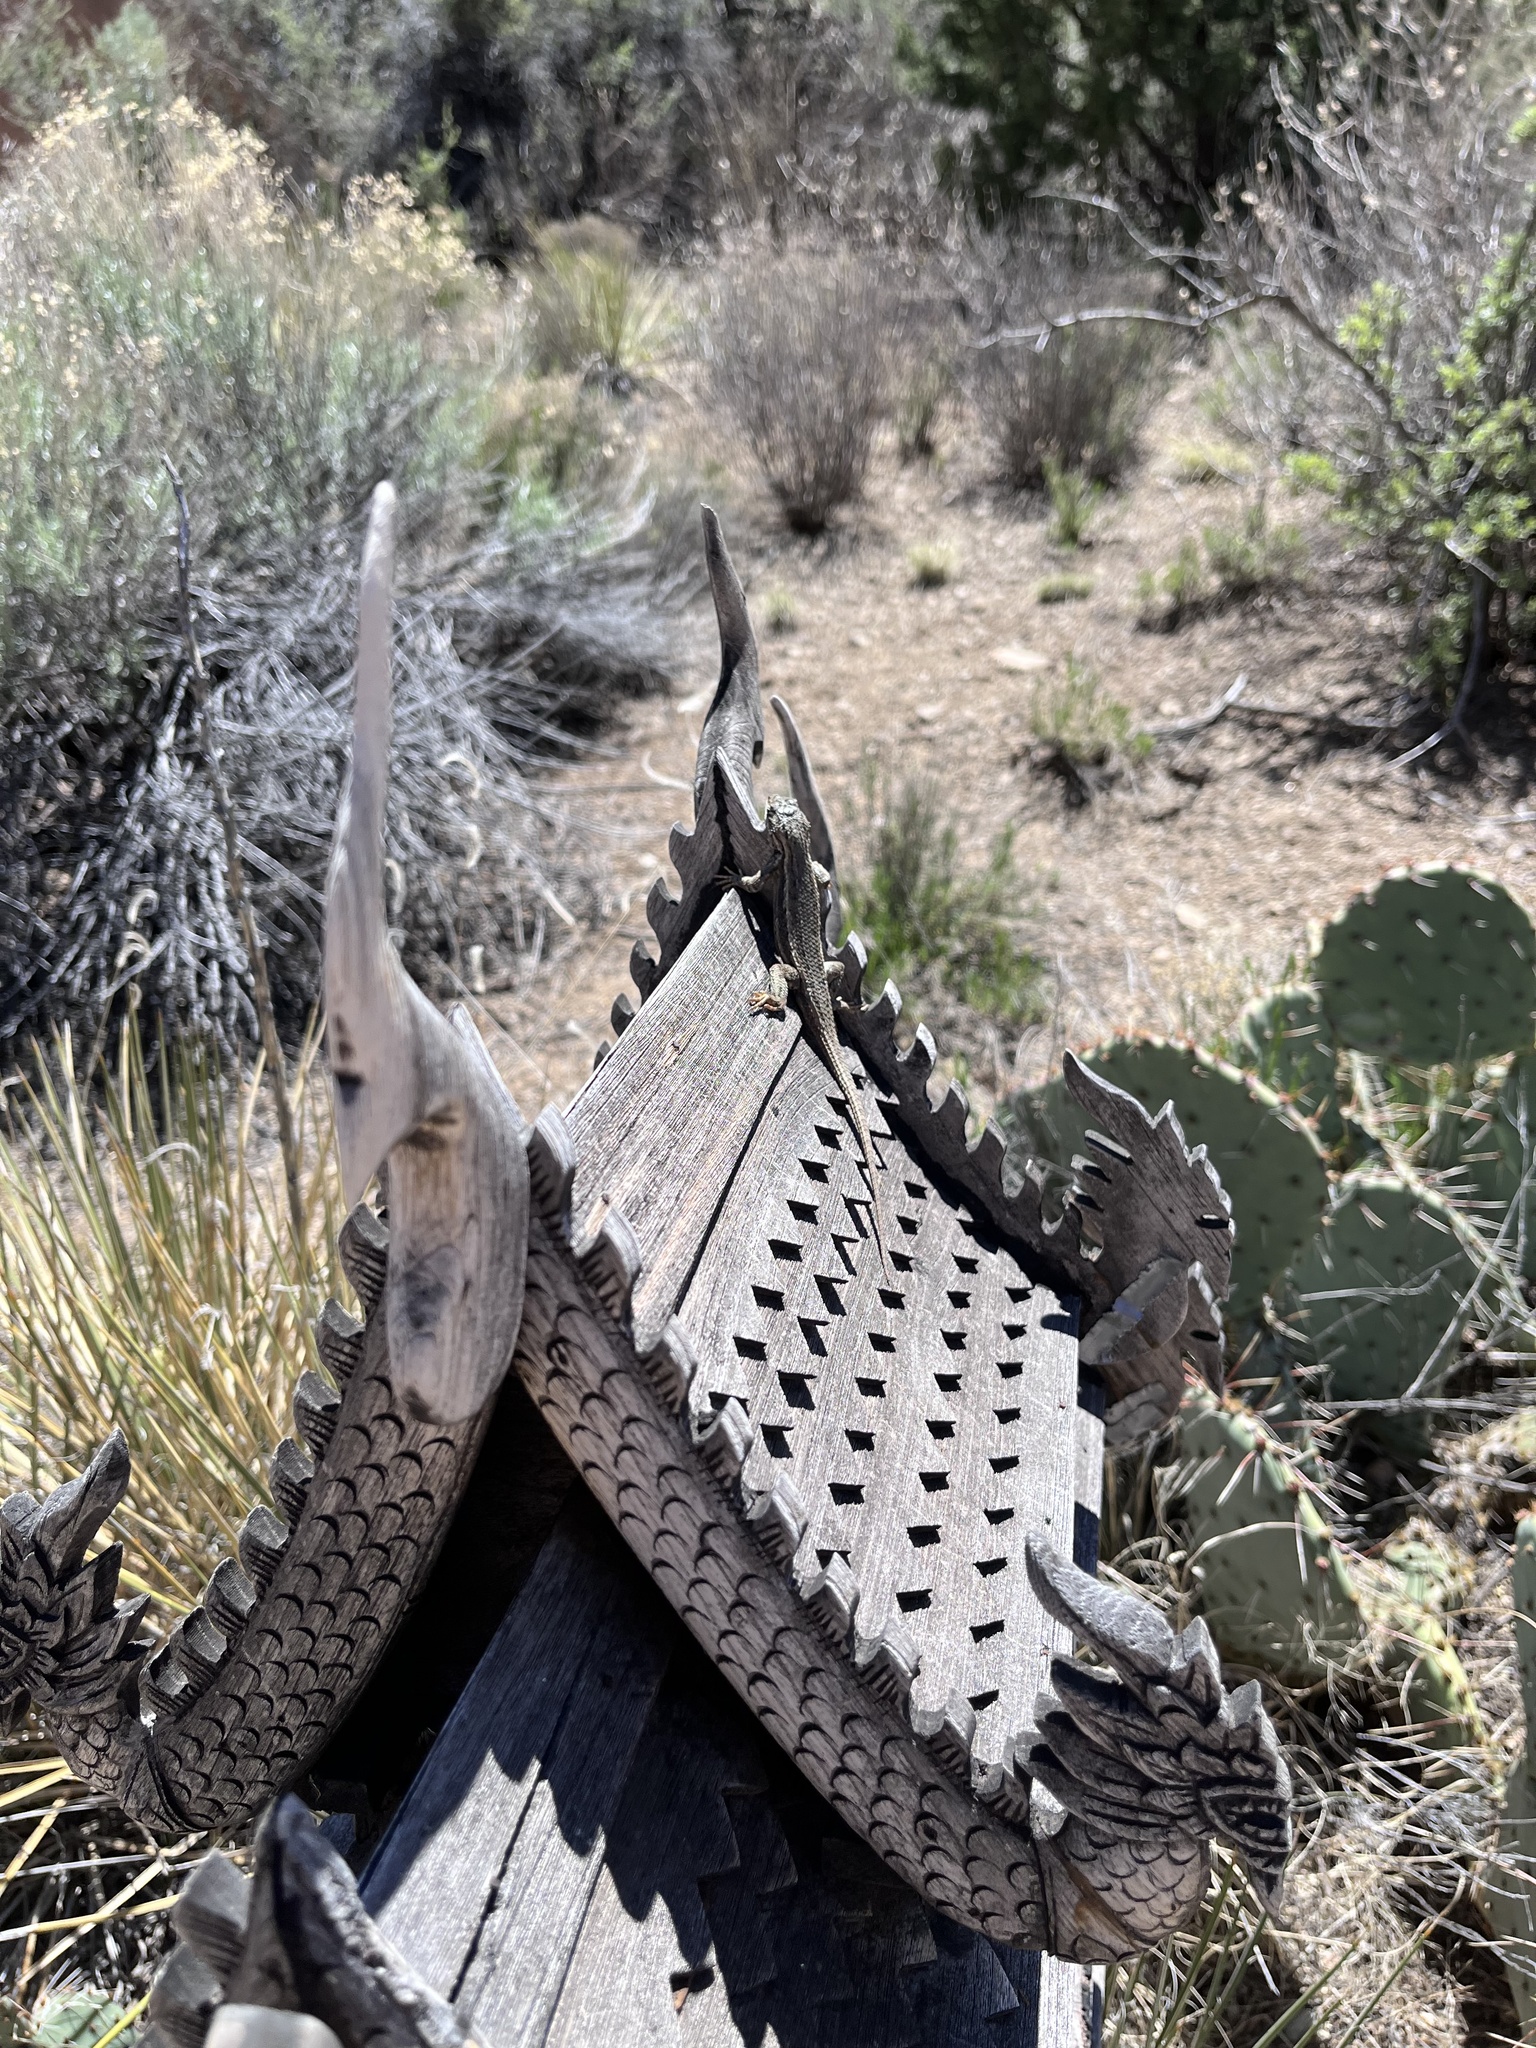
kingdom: Animalia
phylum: Chordata
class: Squamata
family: Phrynosomatidae
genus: Sceloporus
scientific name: Sceloporus cowlesi
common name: White sands prairie lizard
